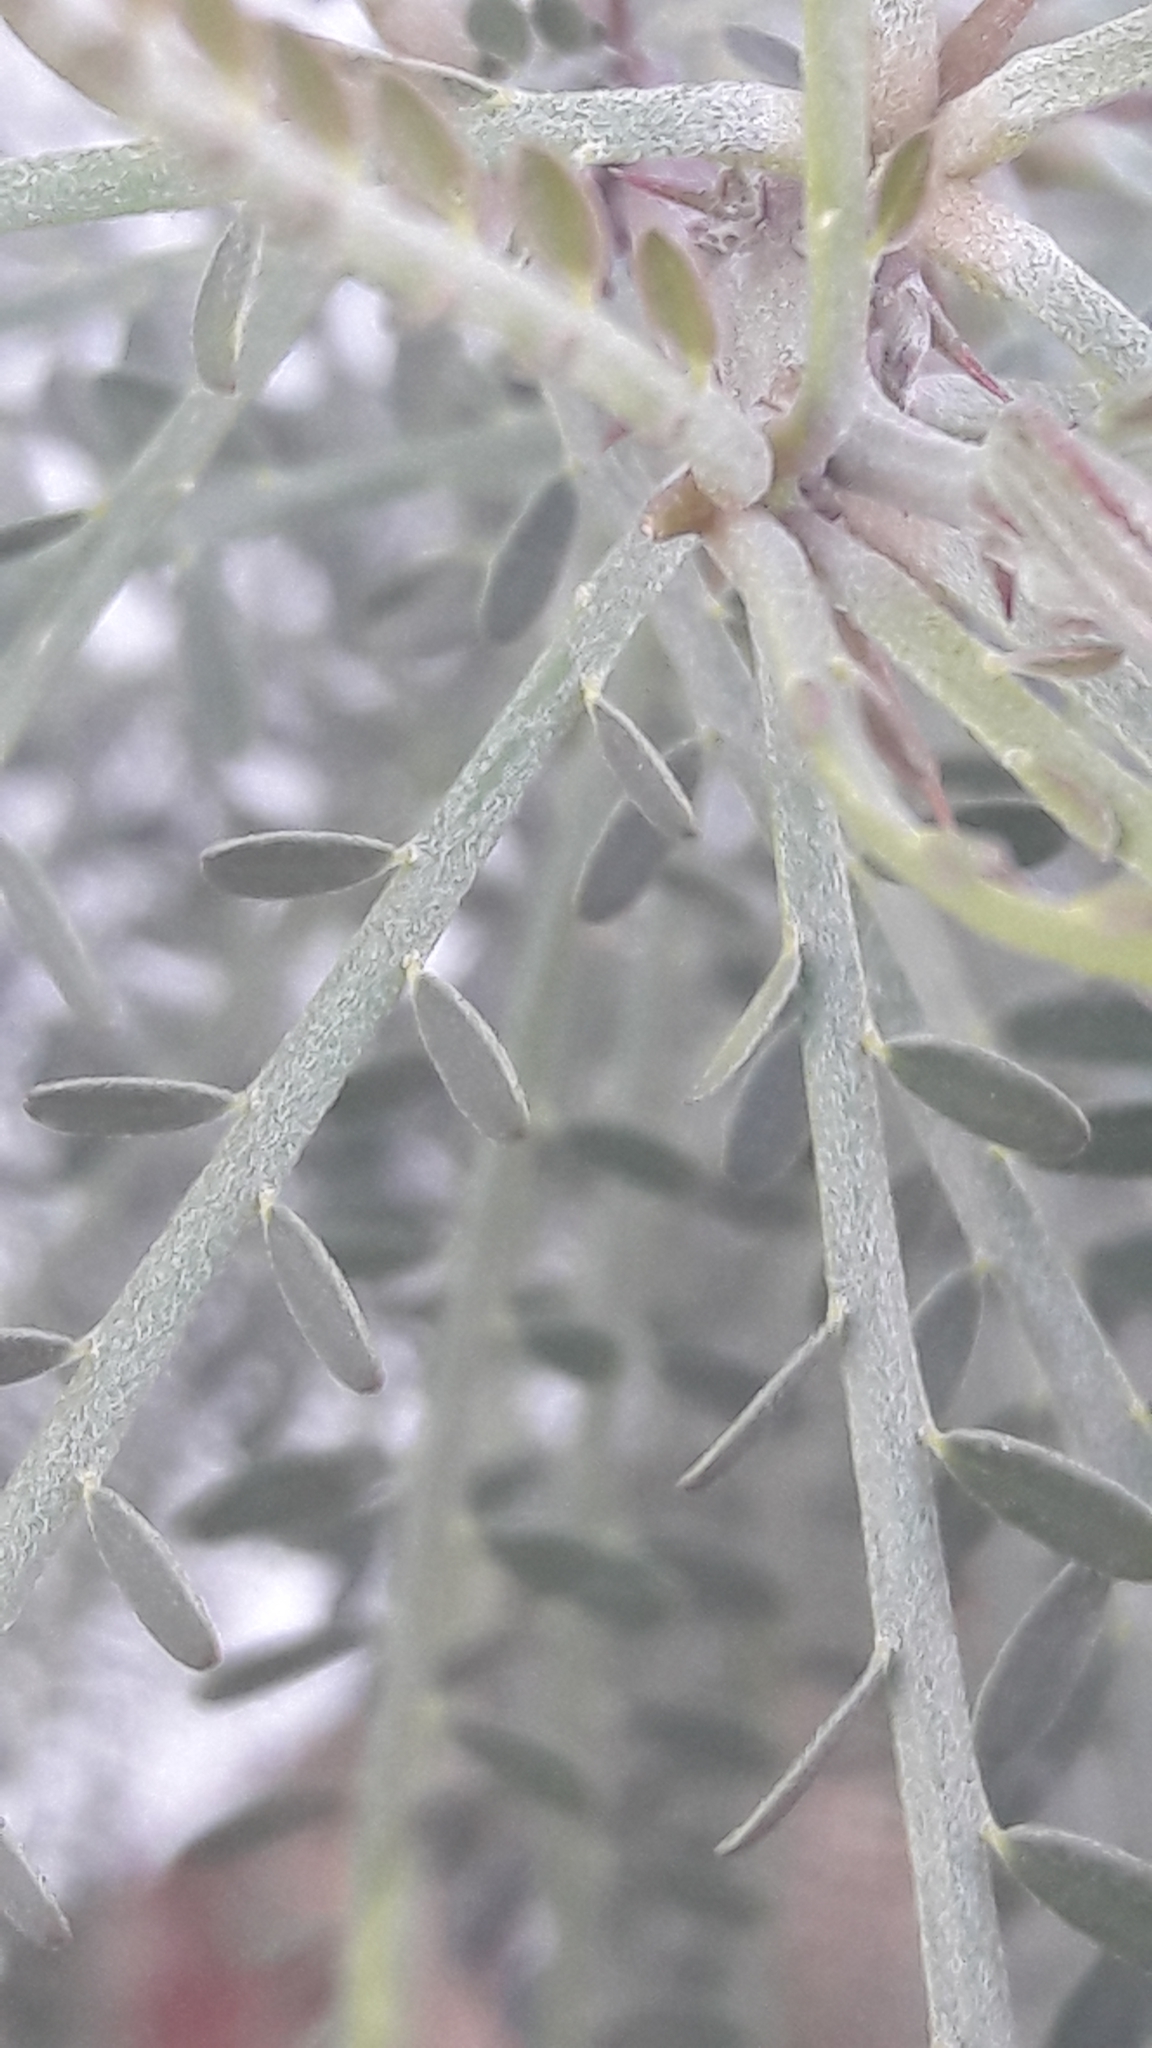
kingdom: Plantae
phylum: Tracheophyta
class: Magnoliopsida
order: Fabales
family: Fabaceae
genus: Parkinsonia
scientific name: Parkinsonia aculeata
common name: Jerusalem thorn
